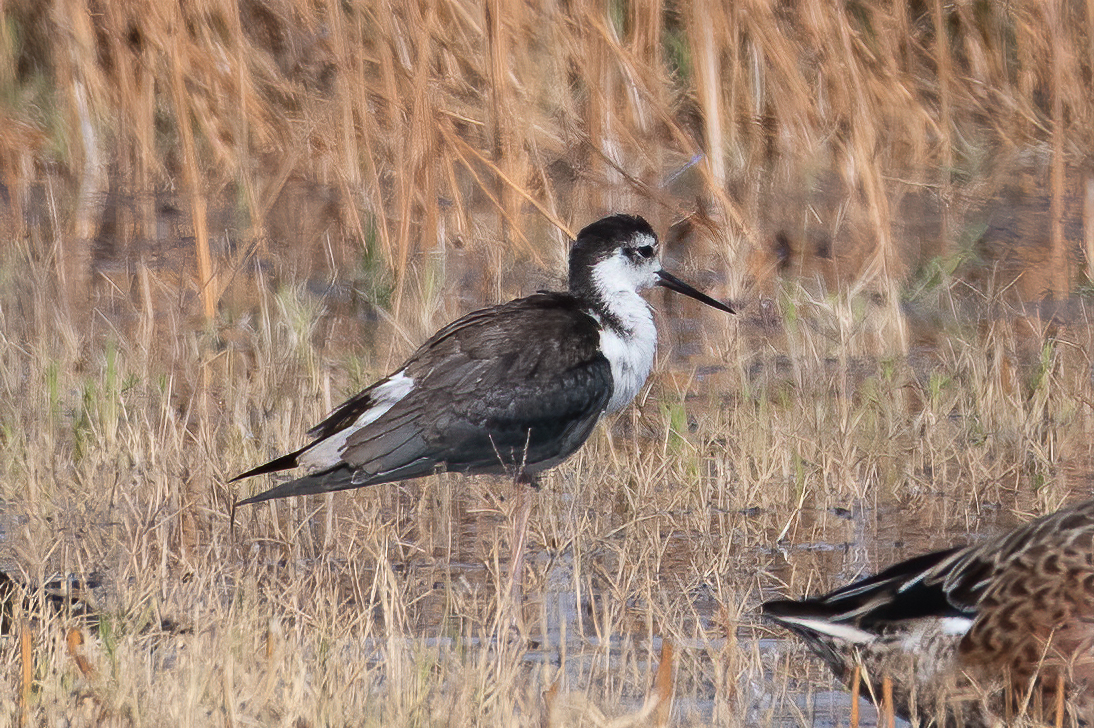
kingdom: Animalia
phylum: Chordata
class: Aves
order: Charadriiformes
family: Recurvirostridae
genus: Himantopus
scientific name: Himantopus mexicanus
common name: Black-necked stilt
